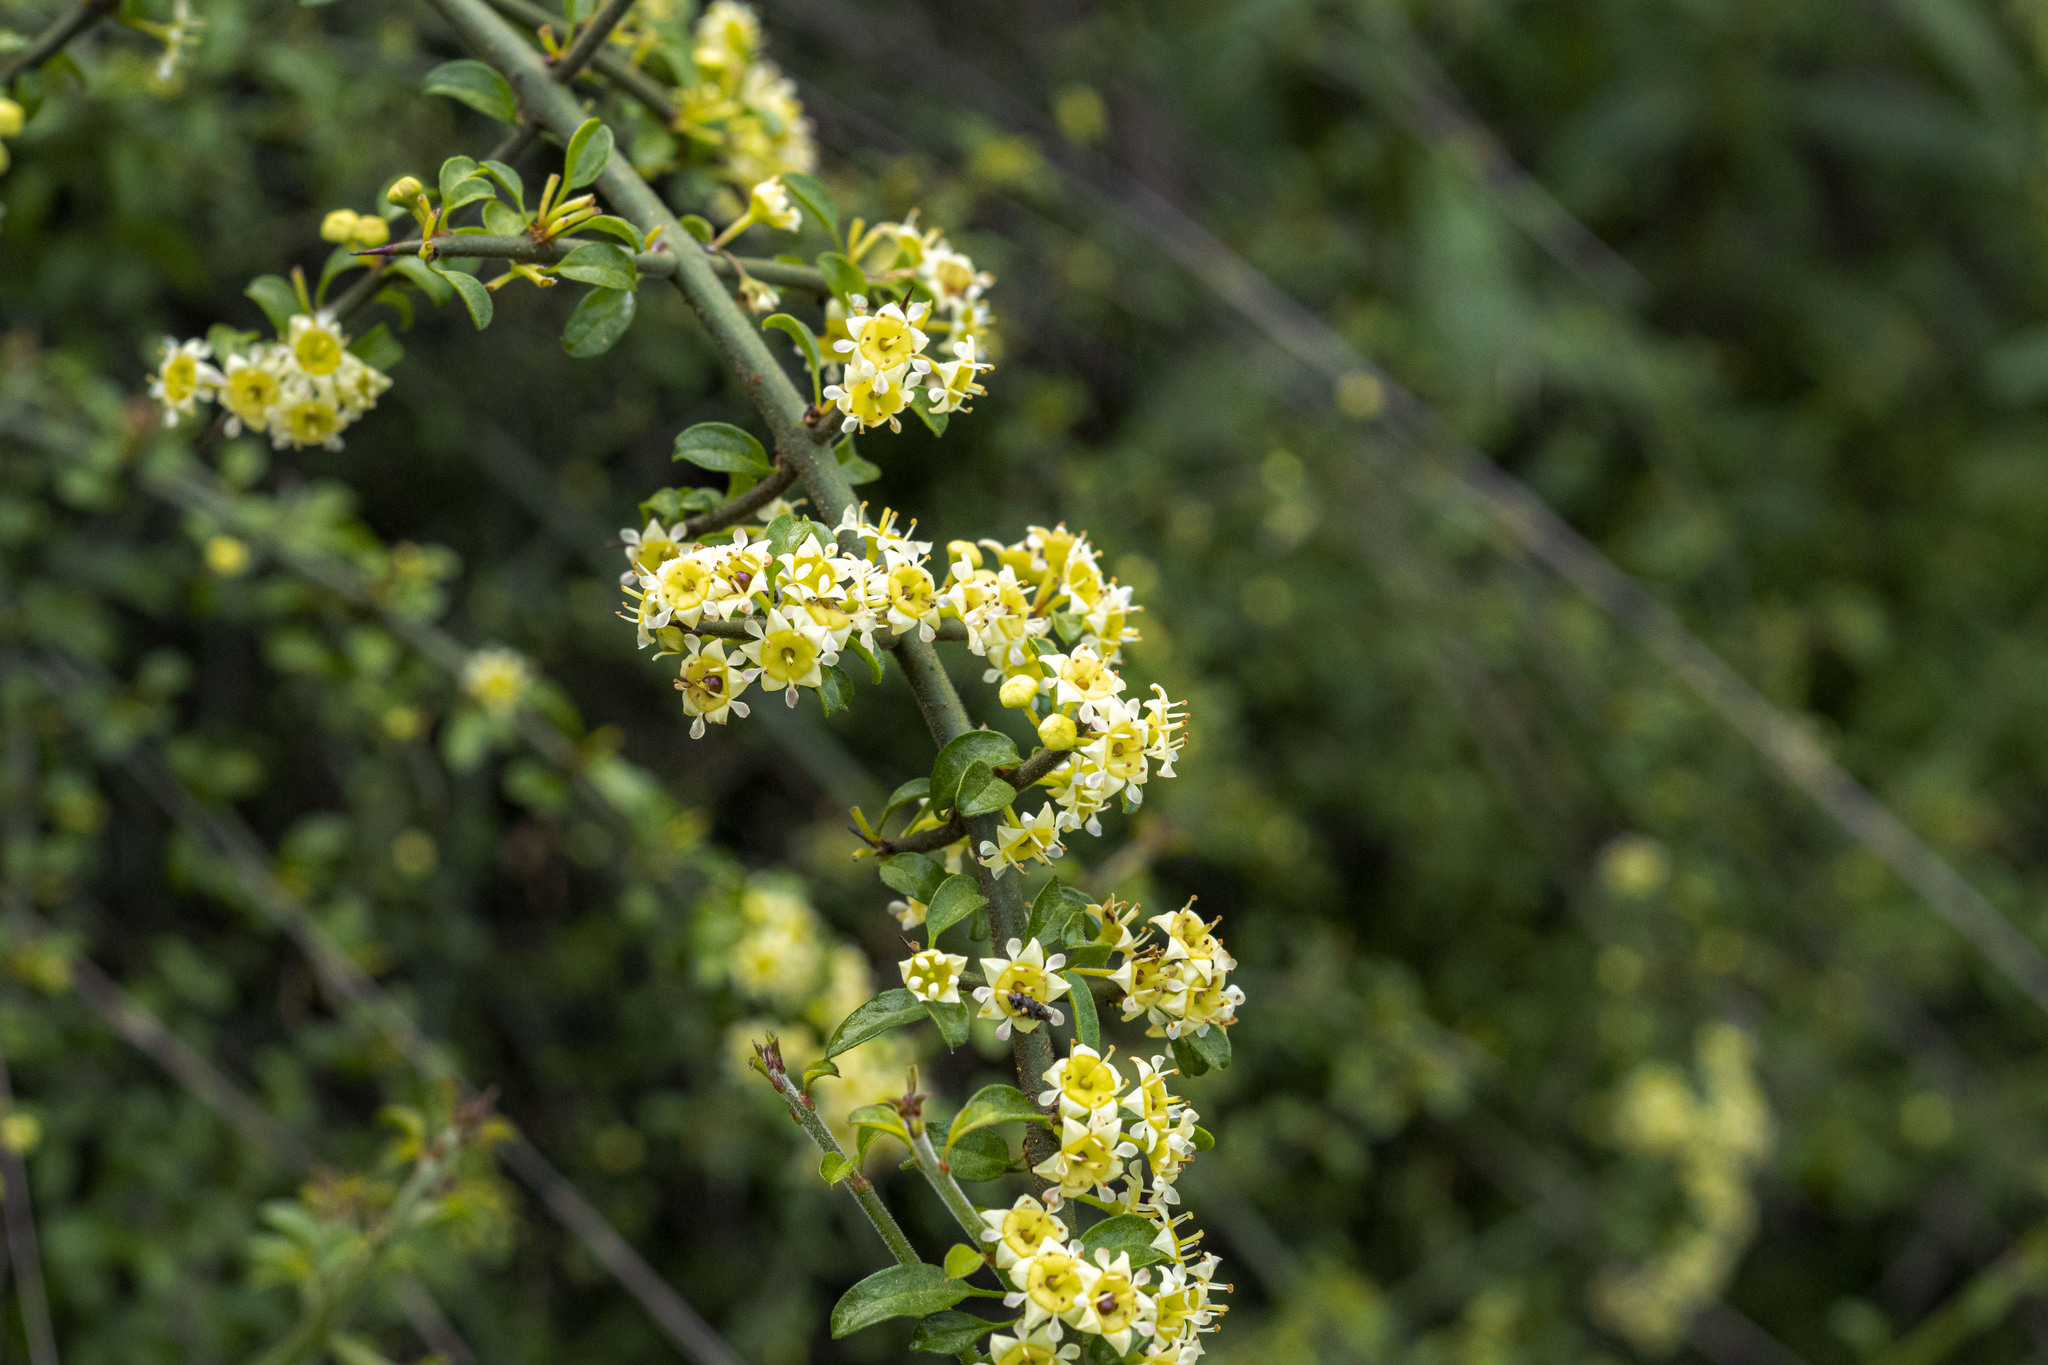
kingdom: Plantae
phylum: Tracheophyta
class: Magnoliopsida
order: Rosales
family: Rhamnaceae
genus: Adolphia
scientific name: Adolphia californica
